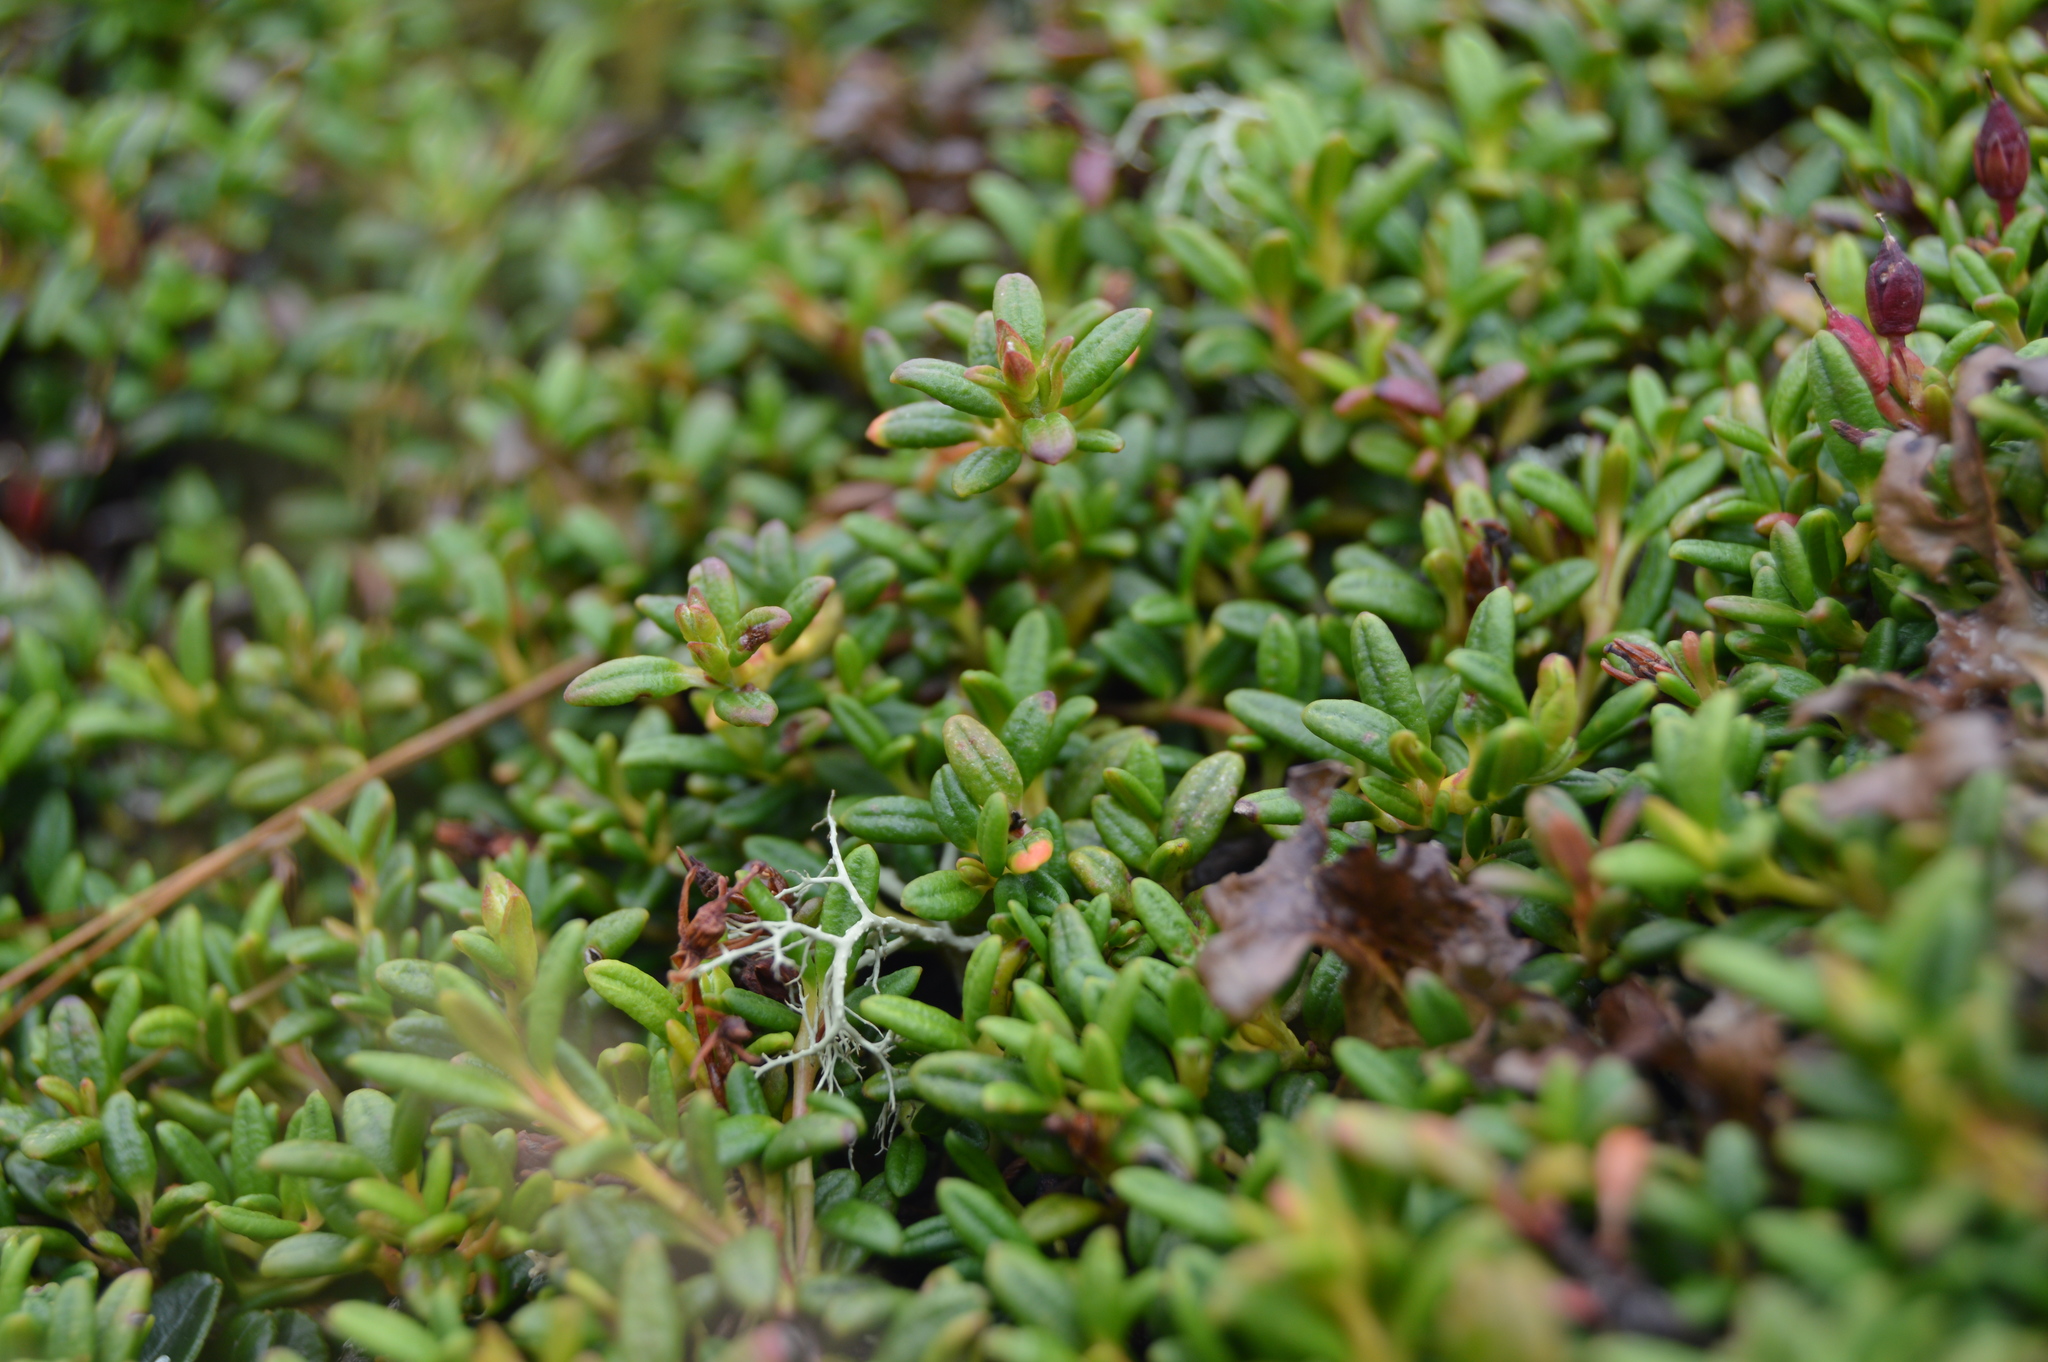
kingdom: Plantae
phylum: Tracheophyta
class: Magnoliopsida
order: Ericales
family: Ericaceae
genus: Kalmia
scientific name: Kalmia procumbens
